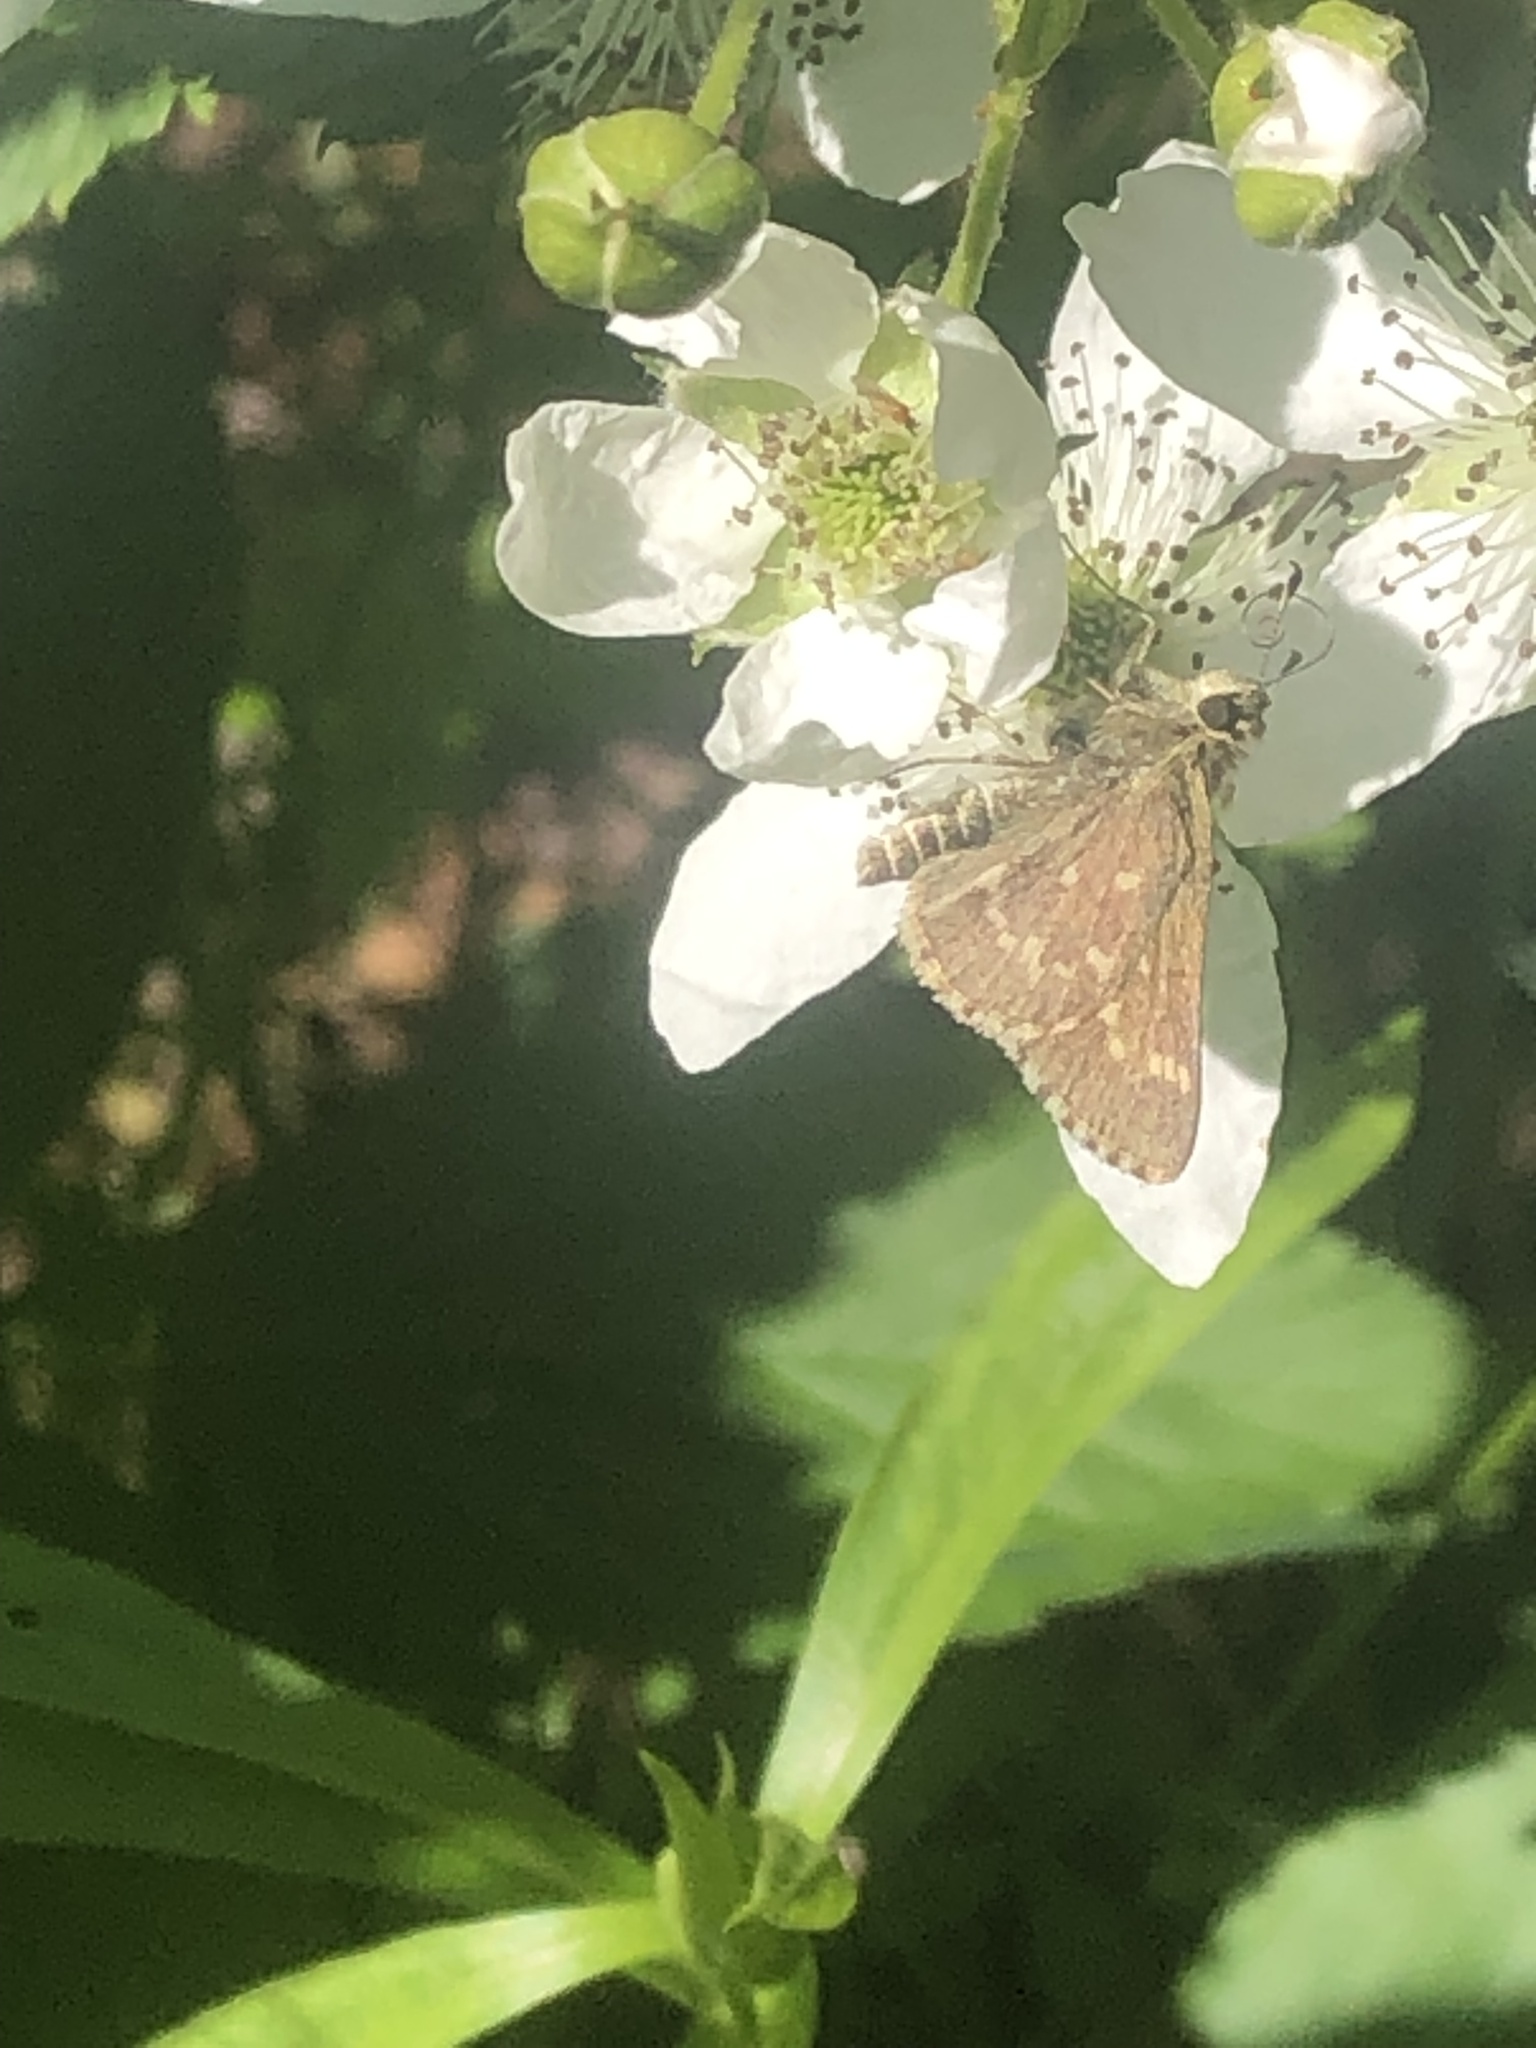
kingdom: Animalia
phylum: Arthropoda
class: Insecta
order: Lepidoptera
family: Hesperiidae
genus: Mastor
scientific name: Mastor hegon
